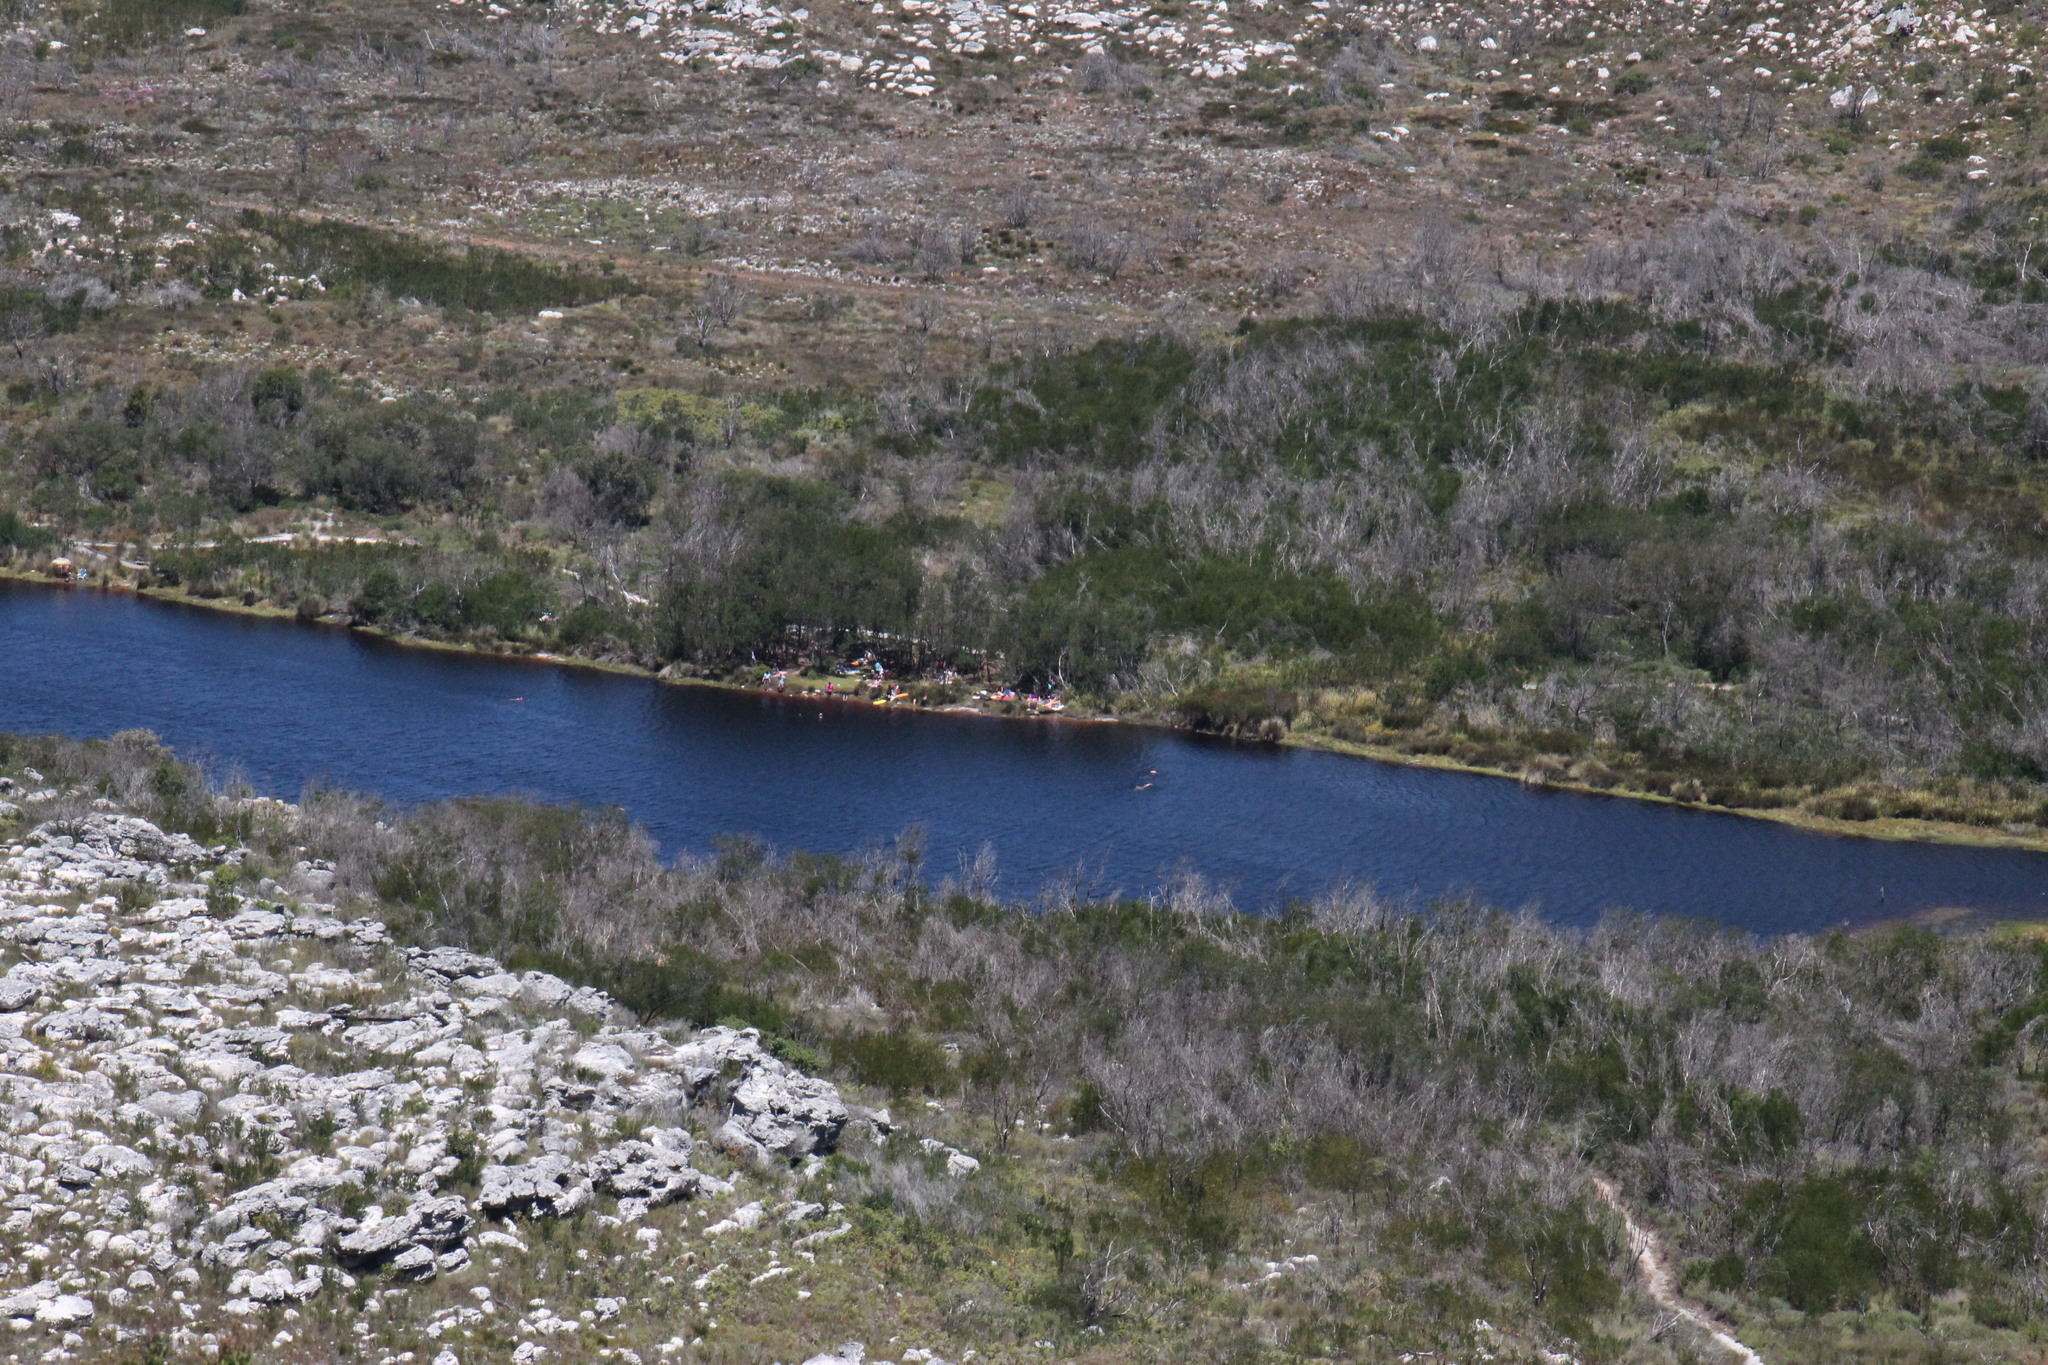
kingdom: Plantae
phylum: Tracheophyta
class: Magnoliopsida
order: Fabales
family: Fabaceae
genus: Psoralea
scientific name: Psoralea pinnata
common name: African scurfpea
